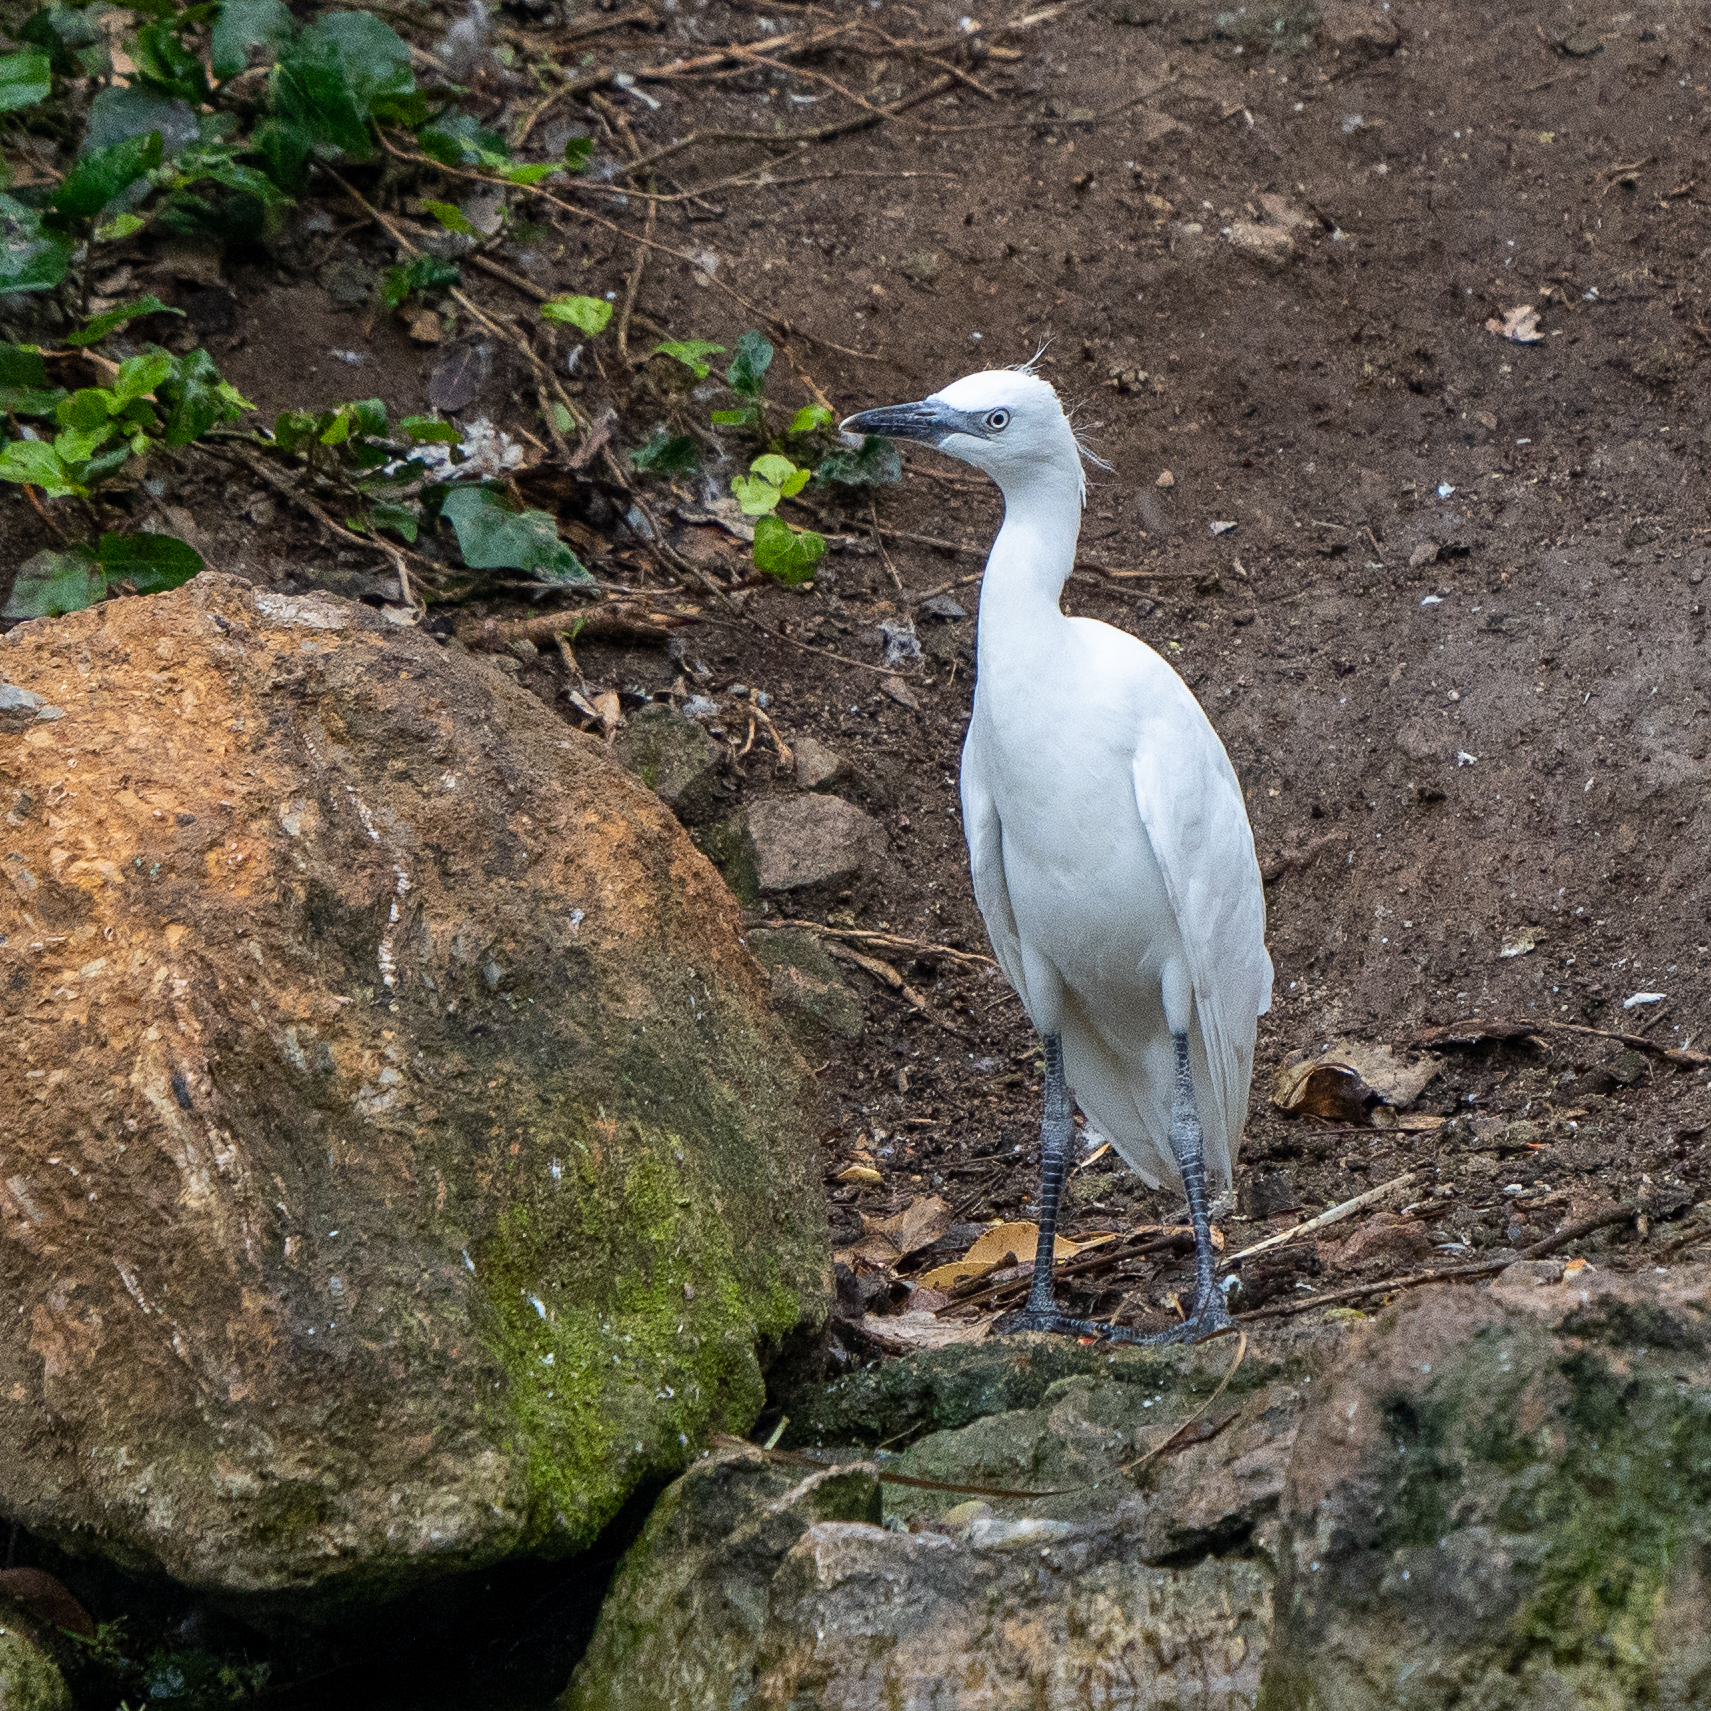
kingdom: Animalia
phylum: Chordata
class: Aves
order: Pelecaniformes
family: Ardeidae
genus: Bubulcus
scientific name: Bubulcus ibis
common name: Cattle egret
